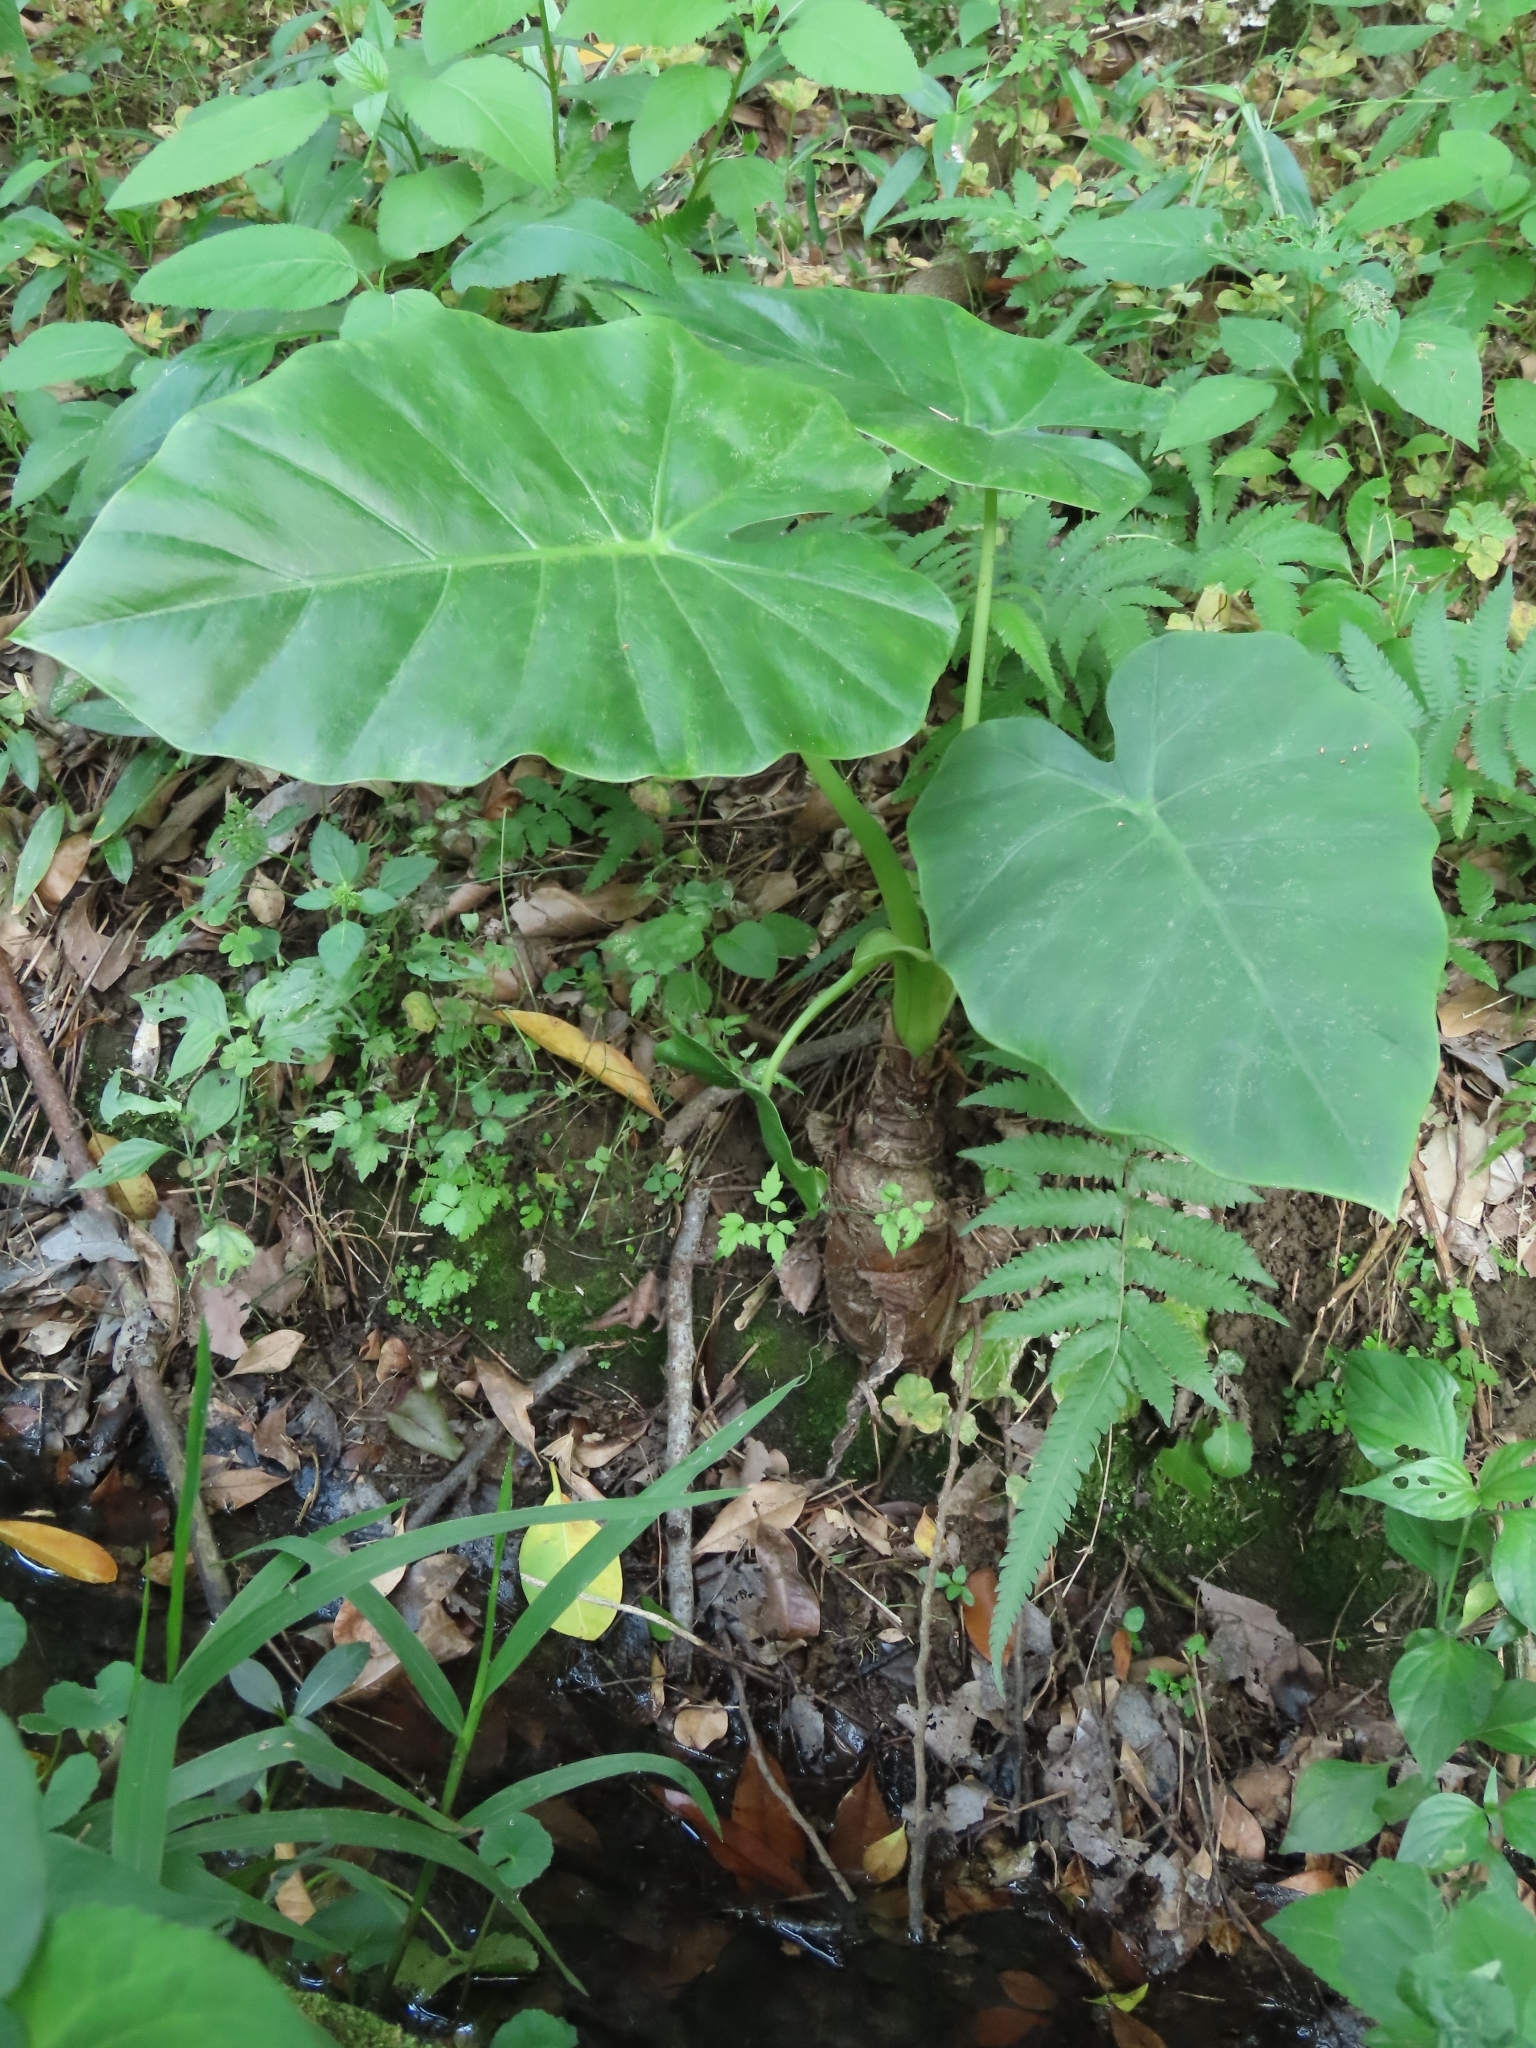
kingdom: Plantae
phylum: Tracheophyta
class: Liliopsida
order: Alismatales
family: Araceae
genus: Alocasia
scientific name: Alocasia odora
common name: Asian taro
